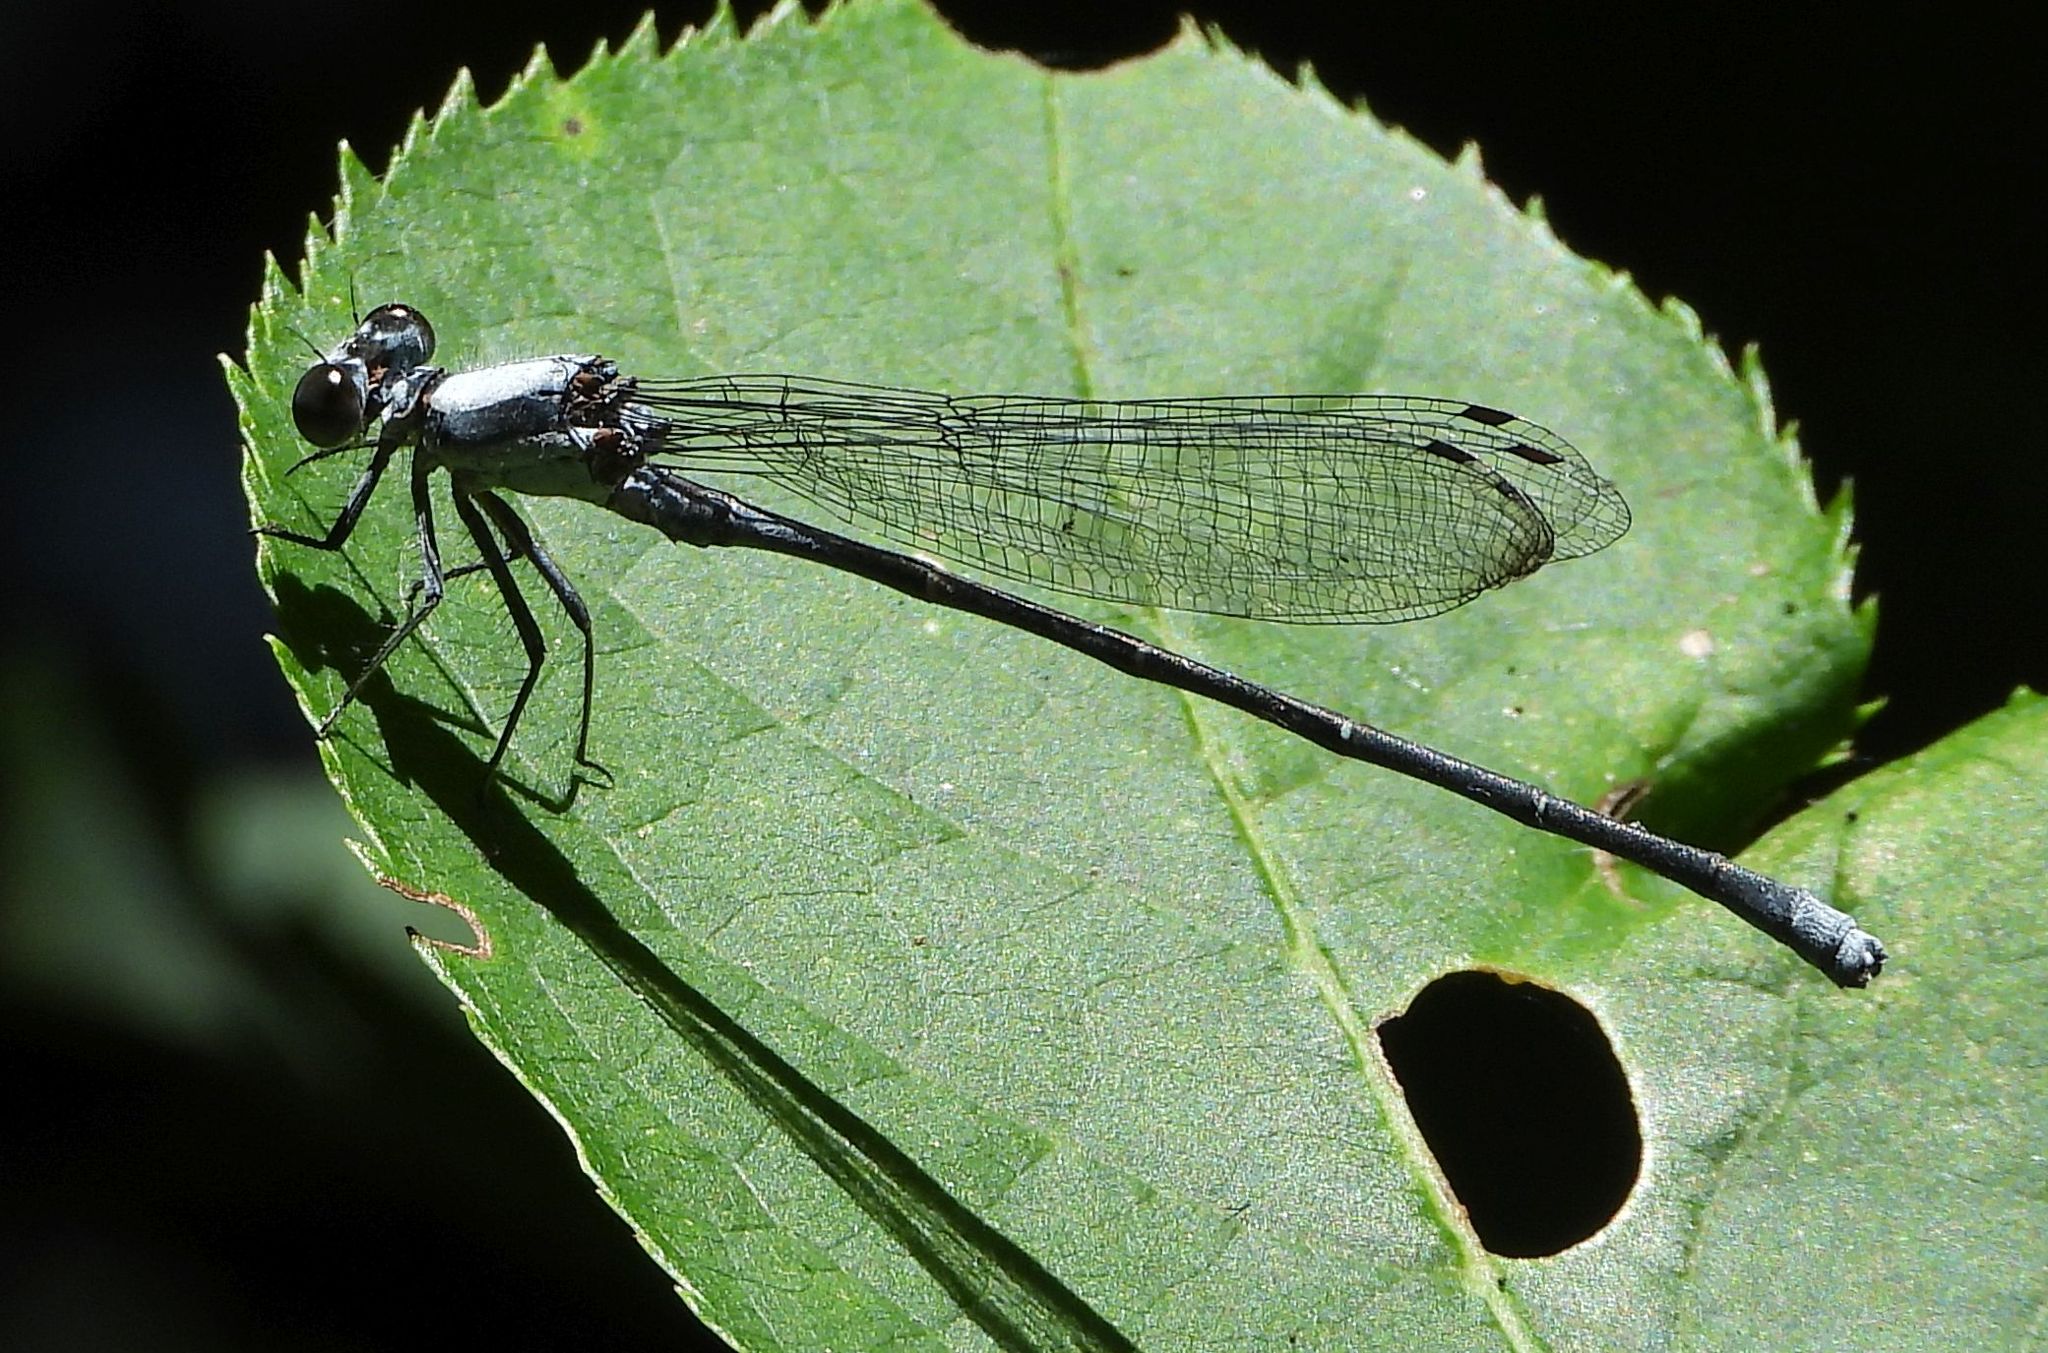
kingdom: Animalia
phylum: Arthropoda
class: Insecta
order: Odonata
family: Coenagrionidae
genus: Argia
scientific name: Argia moesta
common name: Powdered dancer
